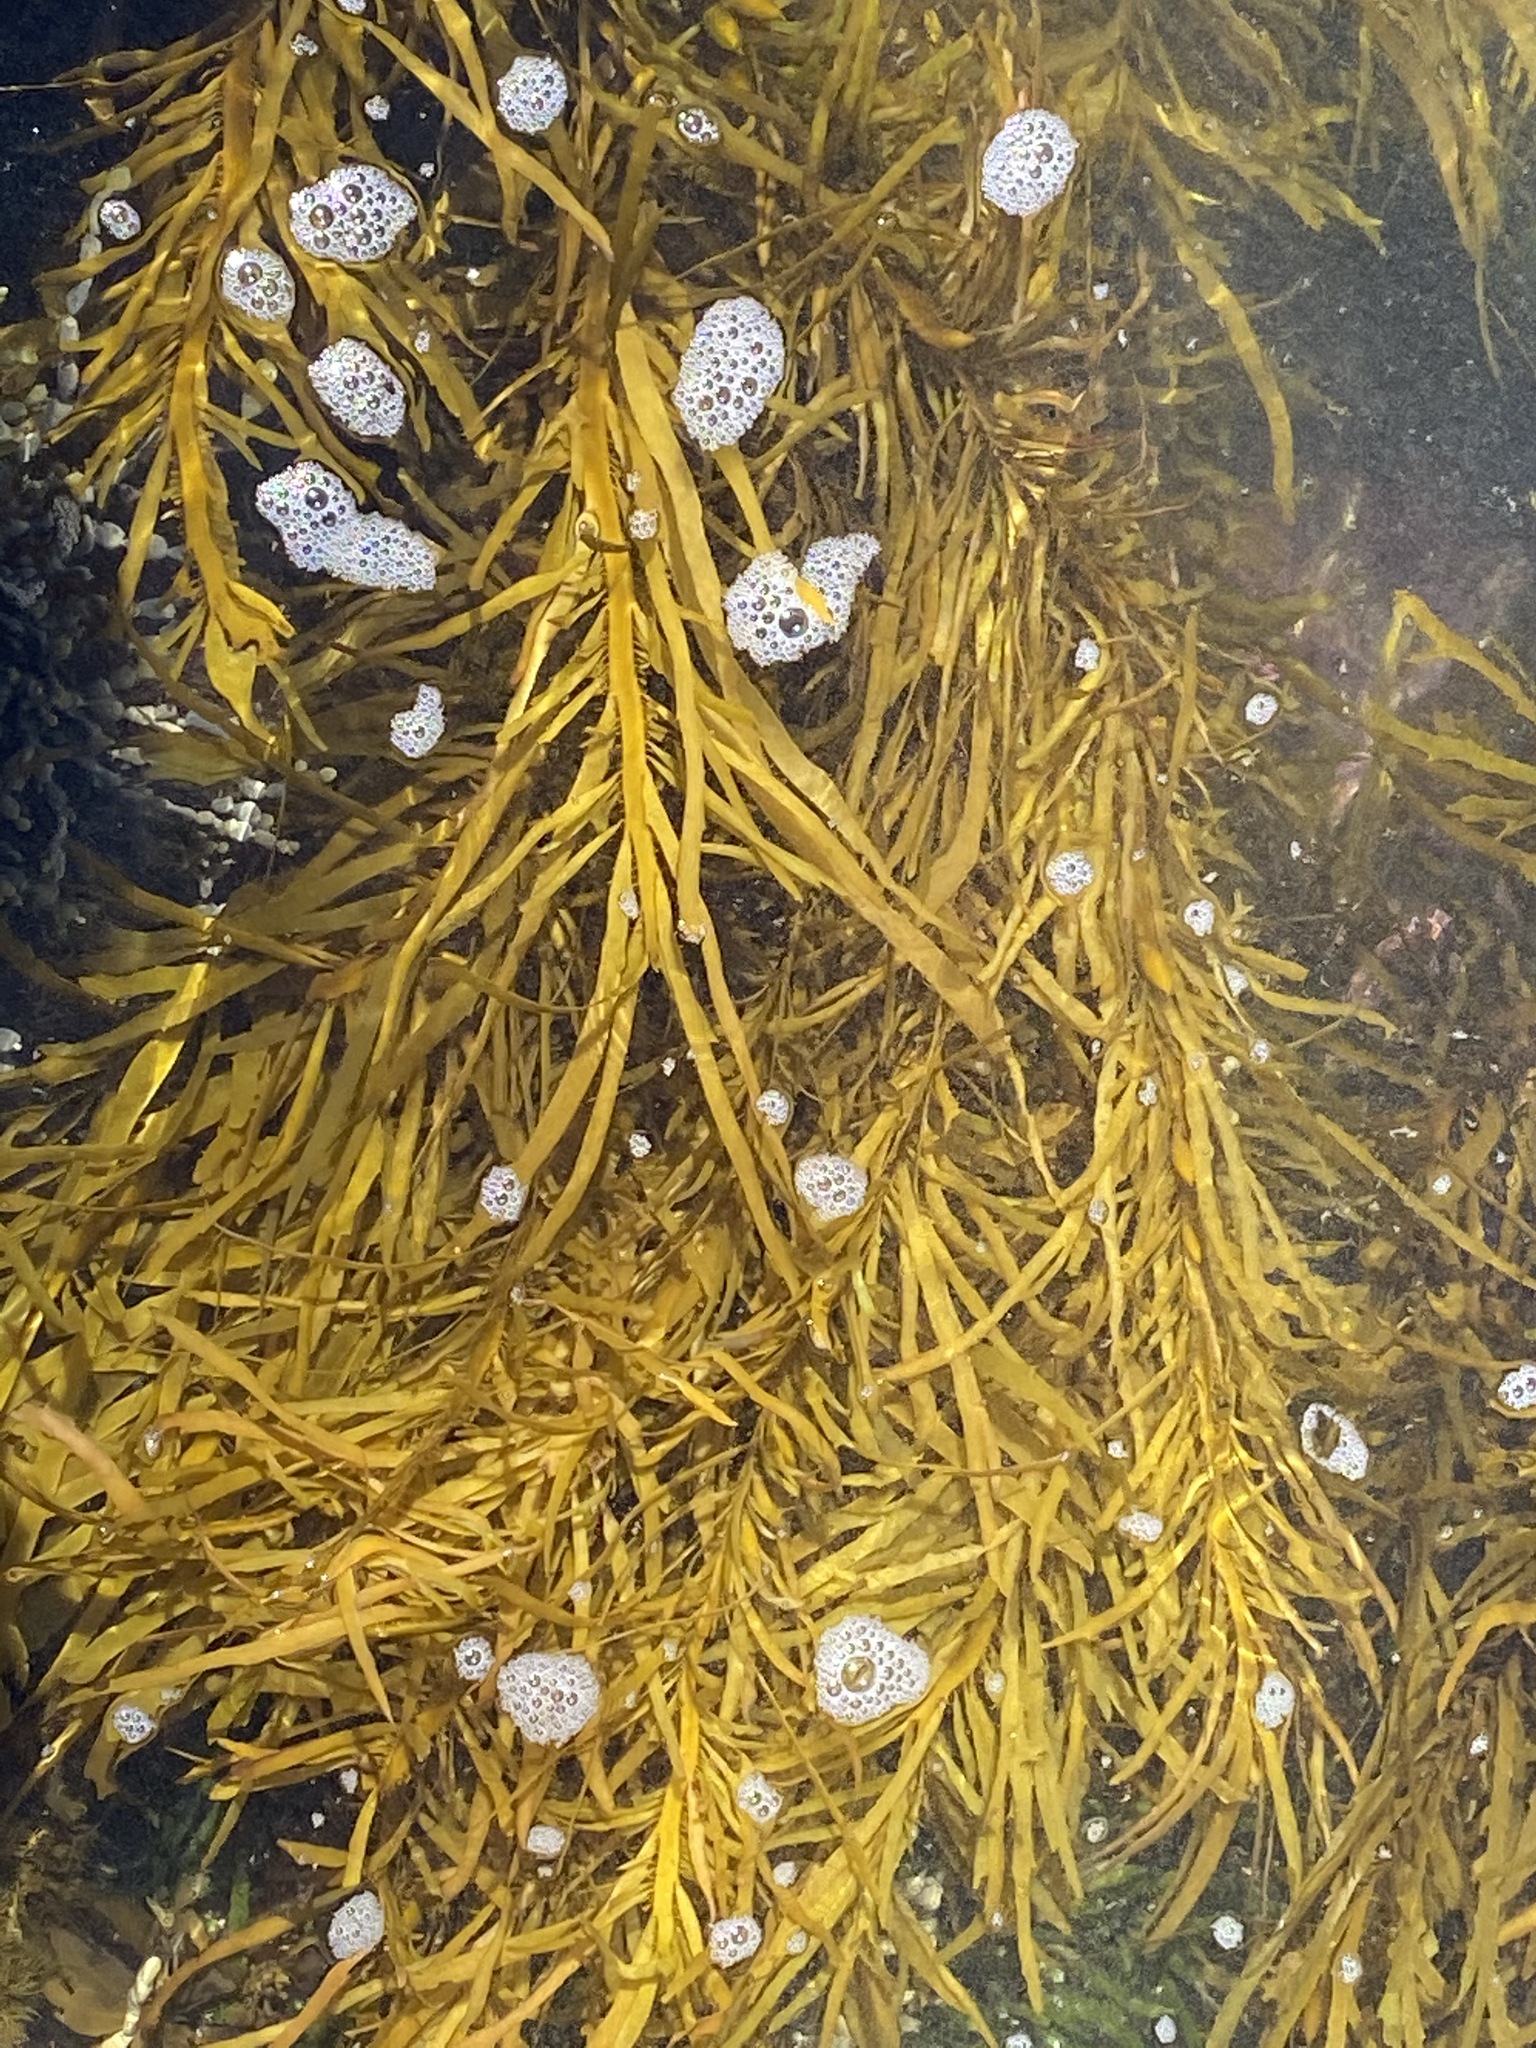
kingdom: Chromista
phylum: Ochrophyta
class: Phaeophyceae
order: Fucales
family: Seirococcaceae
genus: Phyllospora
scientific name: Phyllospora
